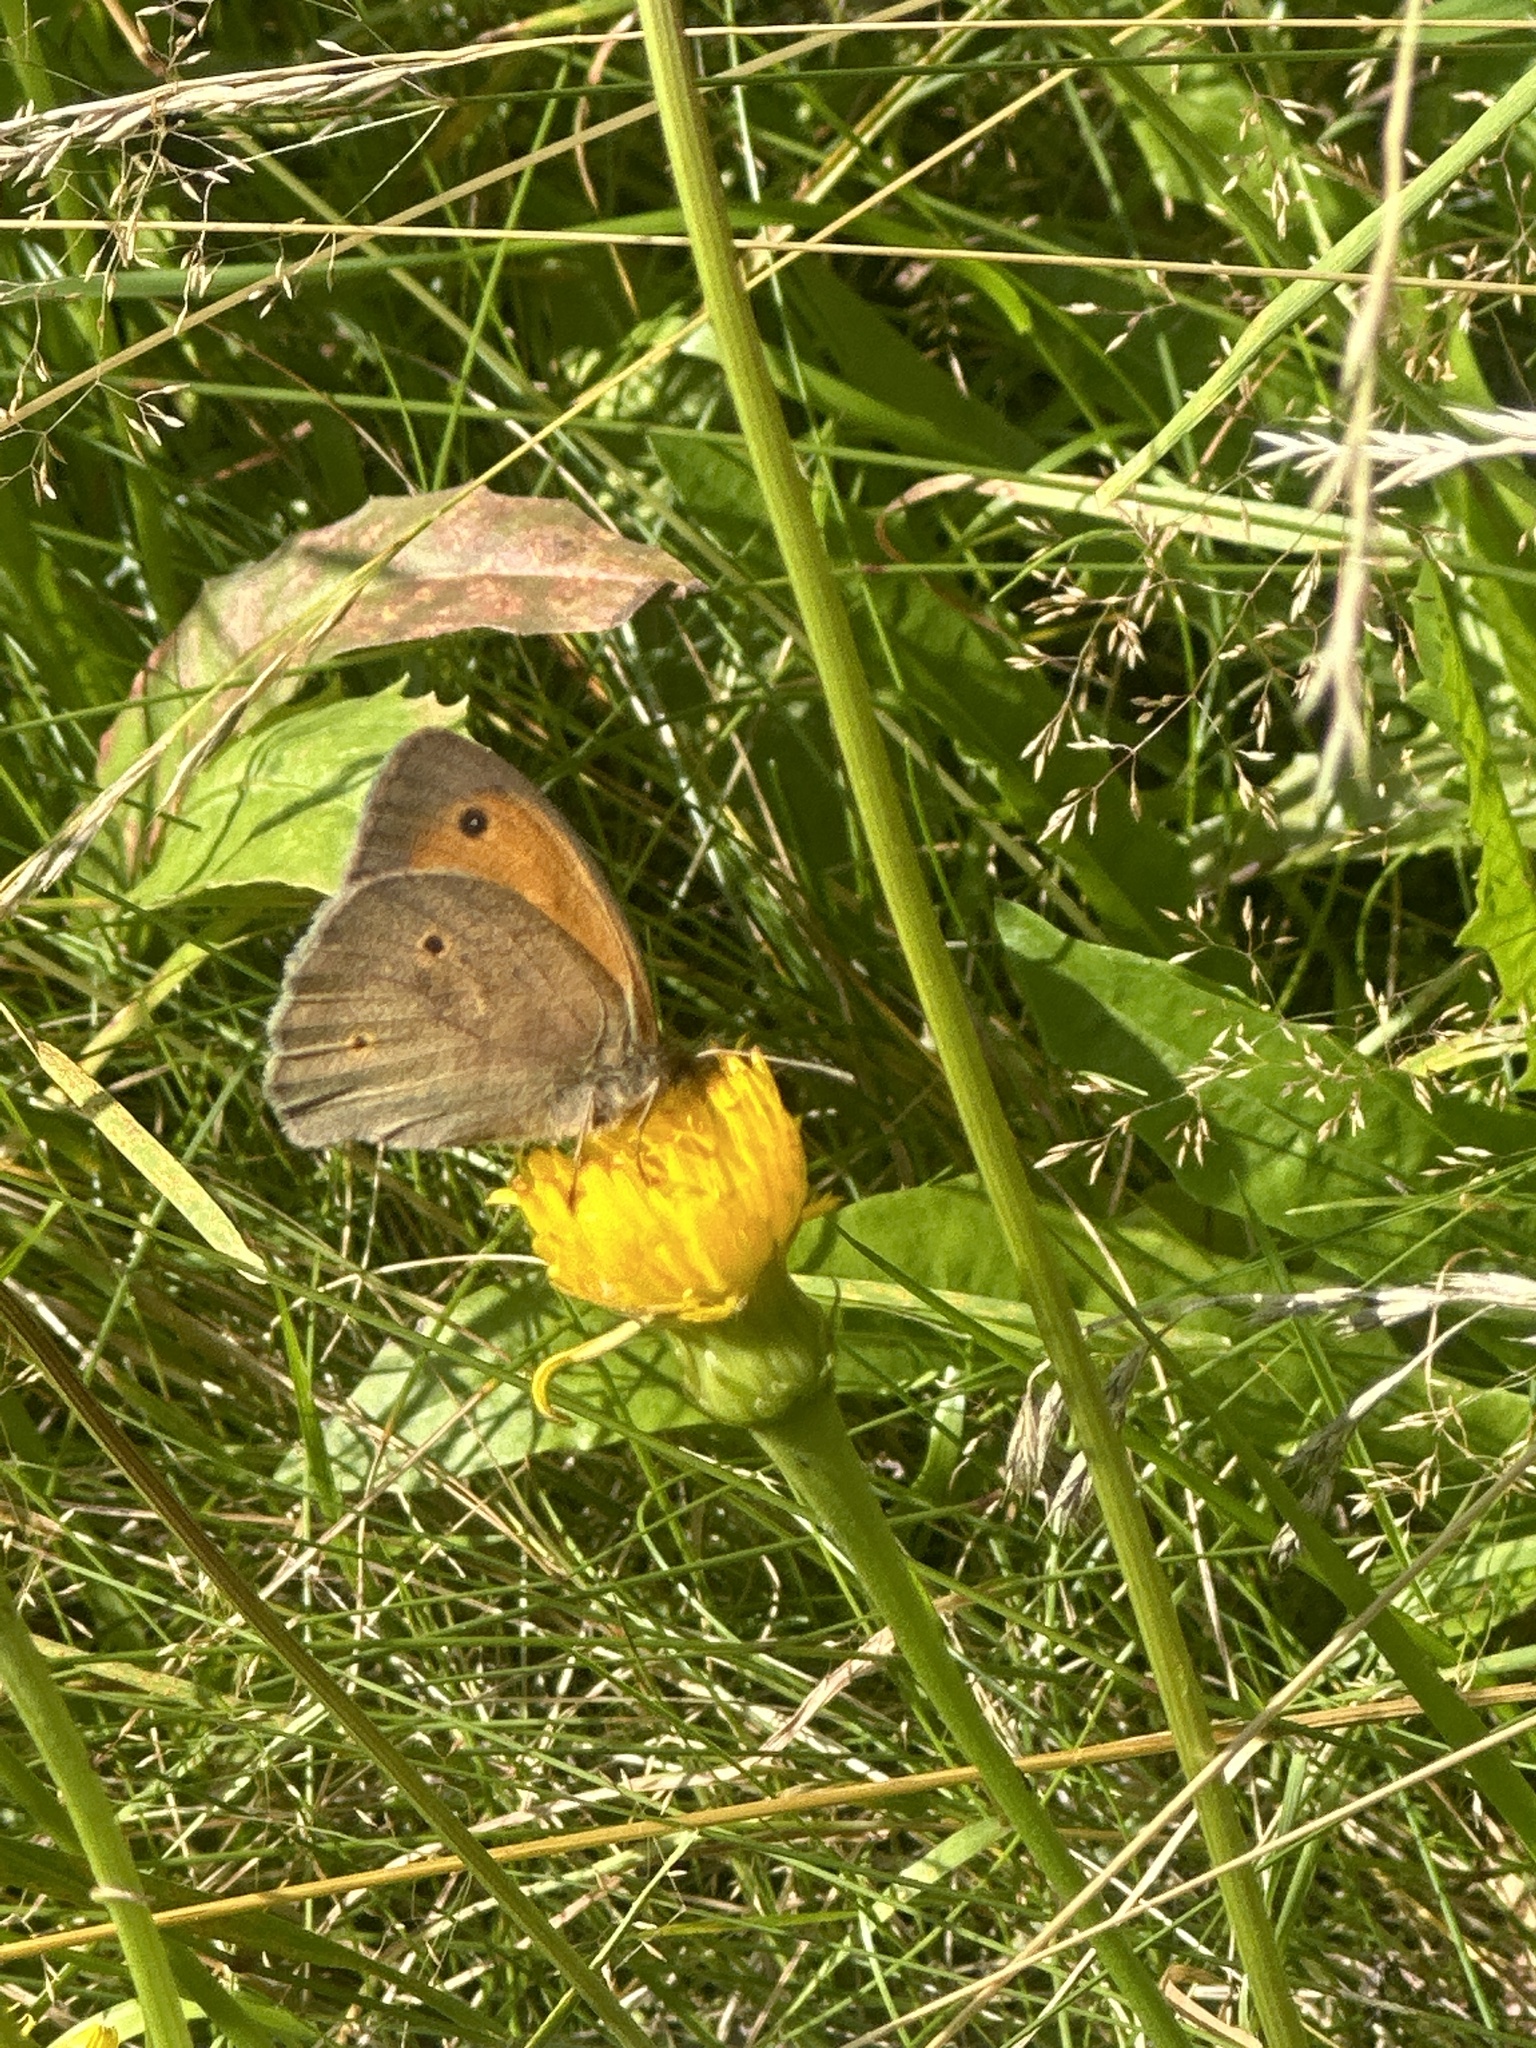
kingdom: Animalia
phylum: Arthropoda
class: Insecta
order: Lepidoptera
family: Nymphalidae
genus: Maniola
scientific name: Maniola jurtina
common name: Meadow brown
